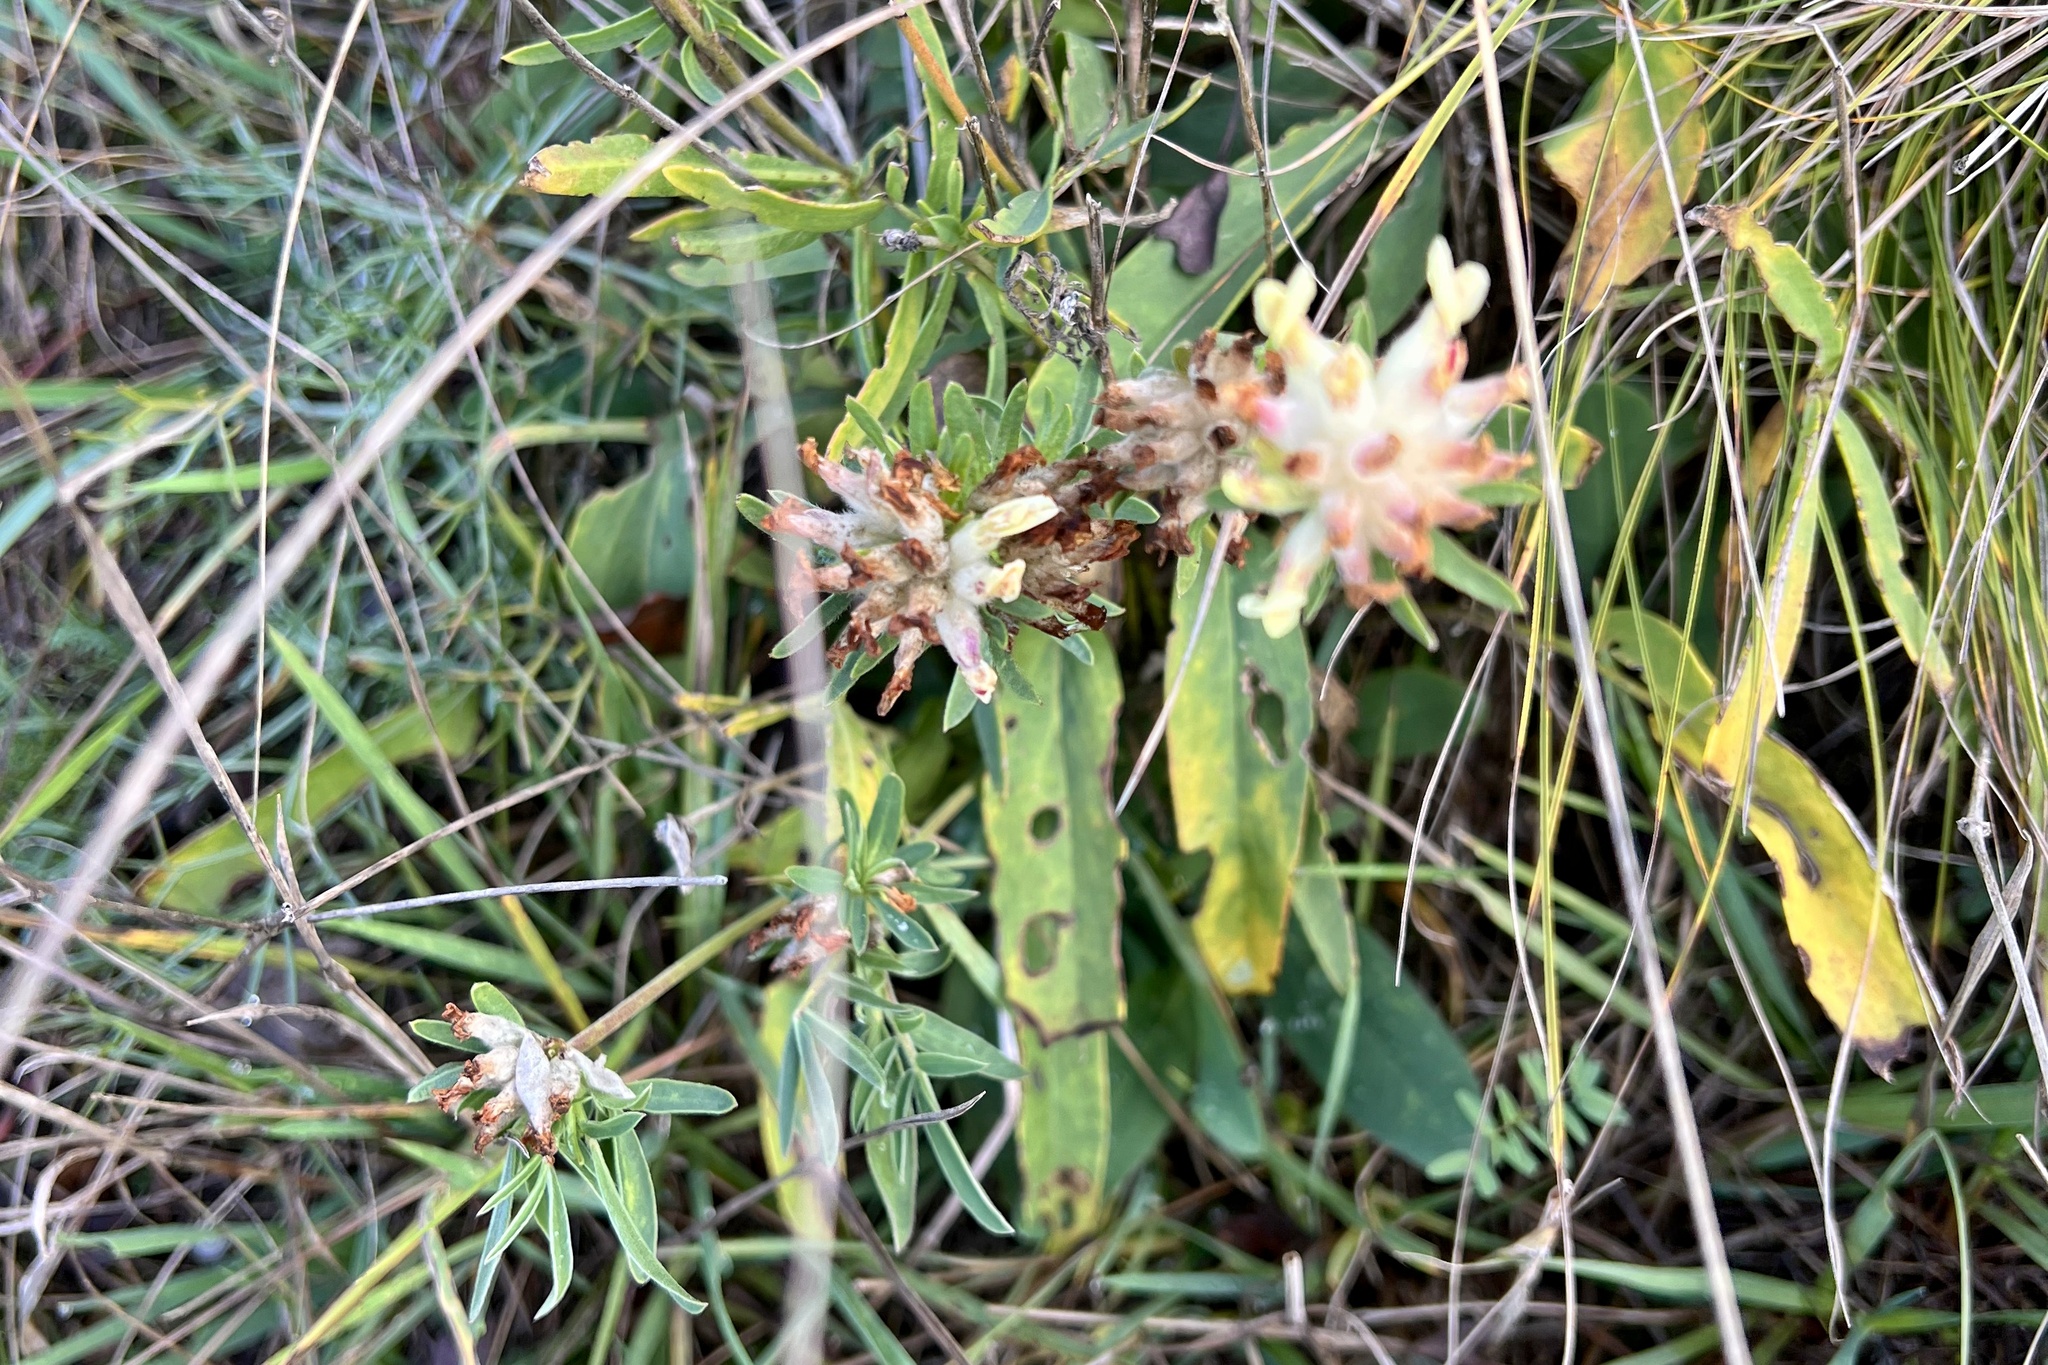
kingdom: Plantae
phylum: Tracheophyta
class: Magnoliopsida
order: Fabales
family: Fabaceae
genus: Anthyllis
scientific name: Anthyllis vulneraria
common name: Kidney vetch
